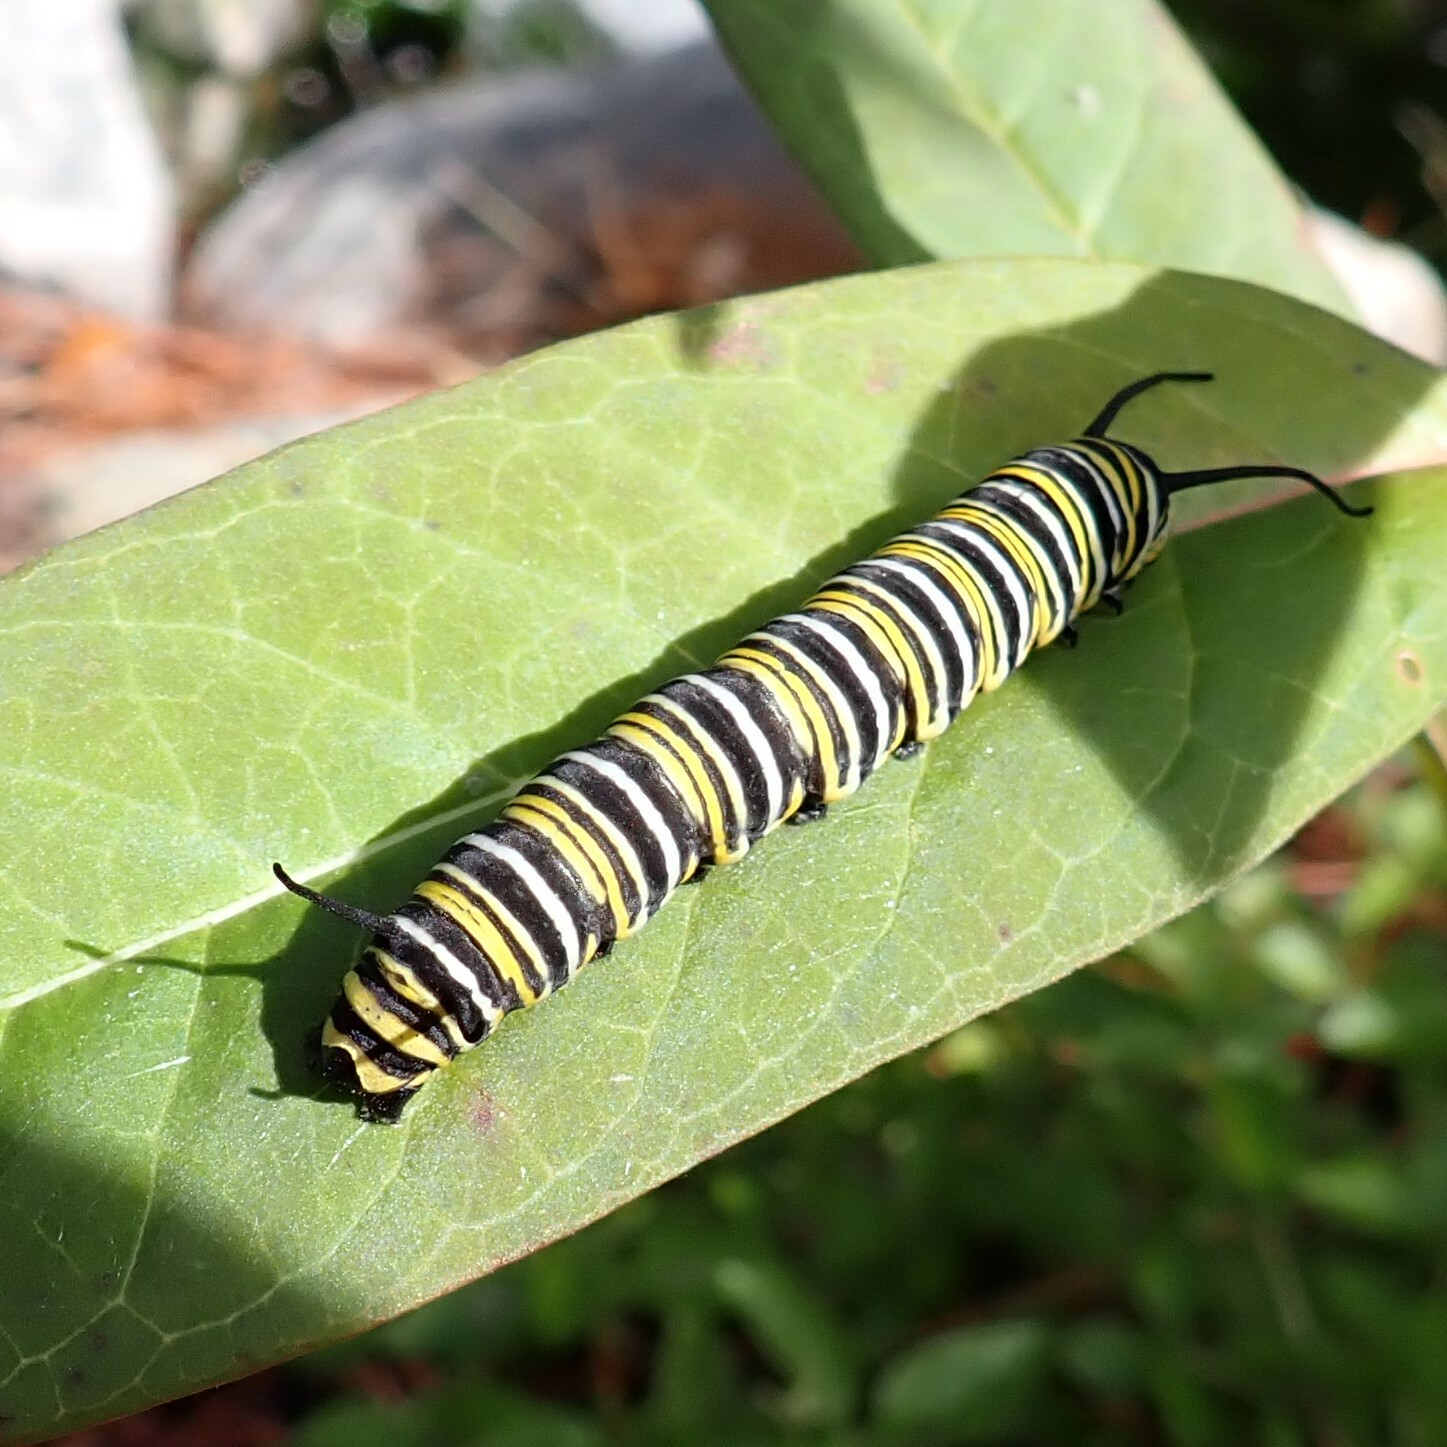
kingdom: Animalia
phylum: Arthropoda
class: Insecta
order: Lepidoptera
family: Nymphalidae
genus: Danaus
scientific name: Danaus plexippus
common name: Monarch
